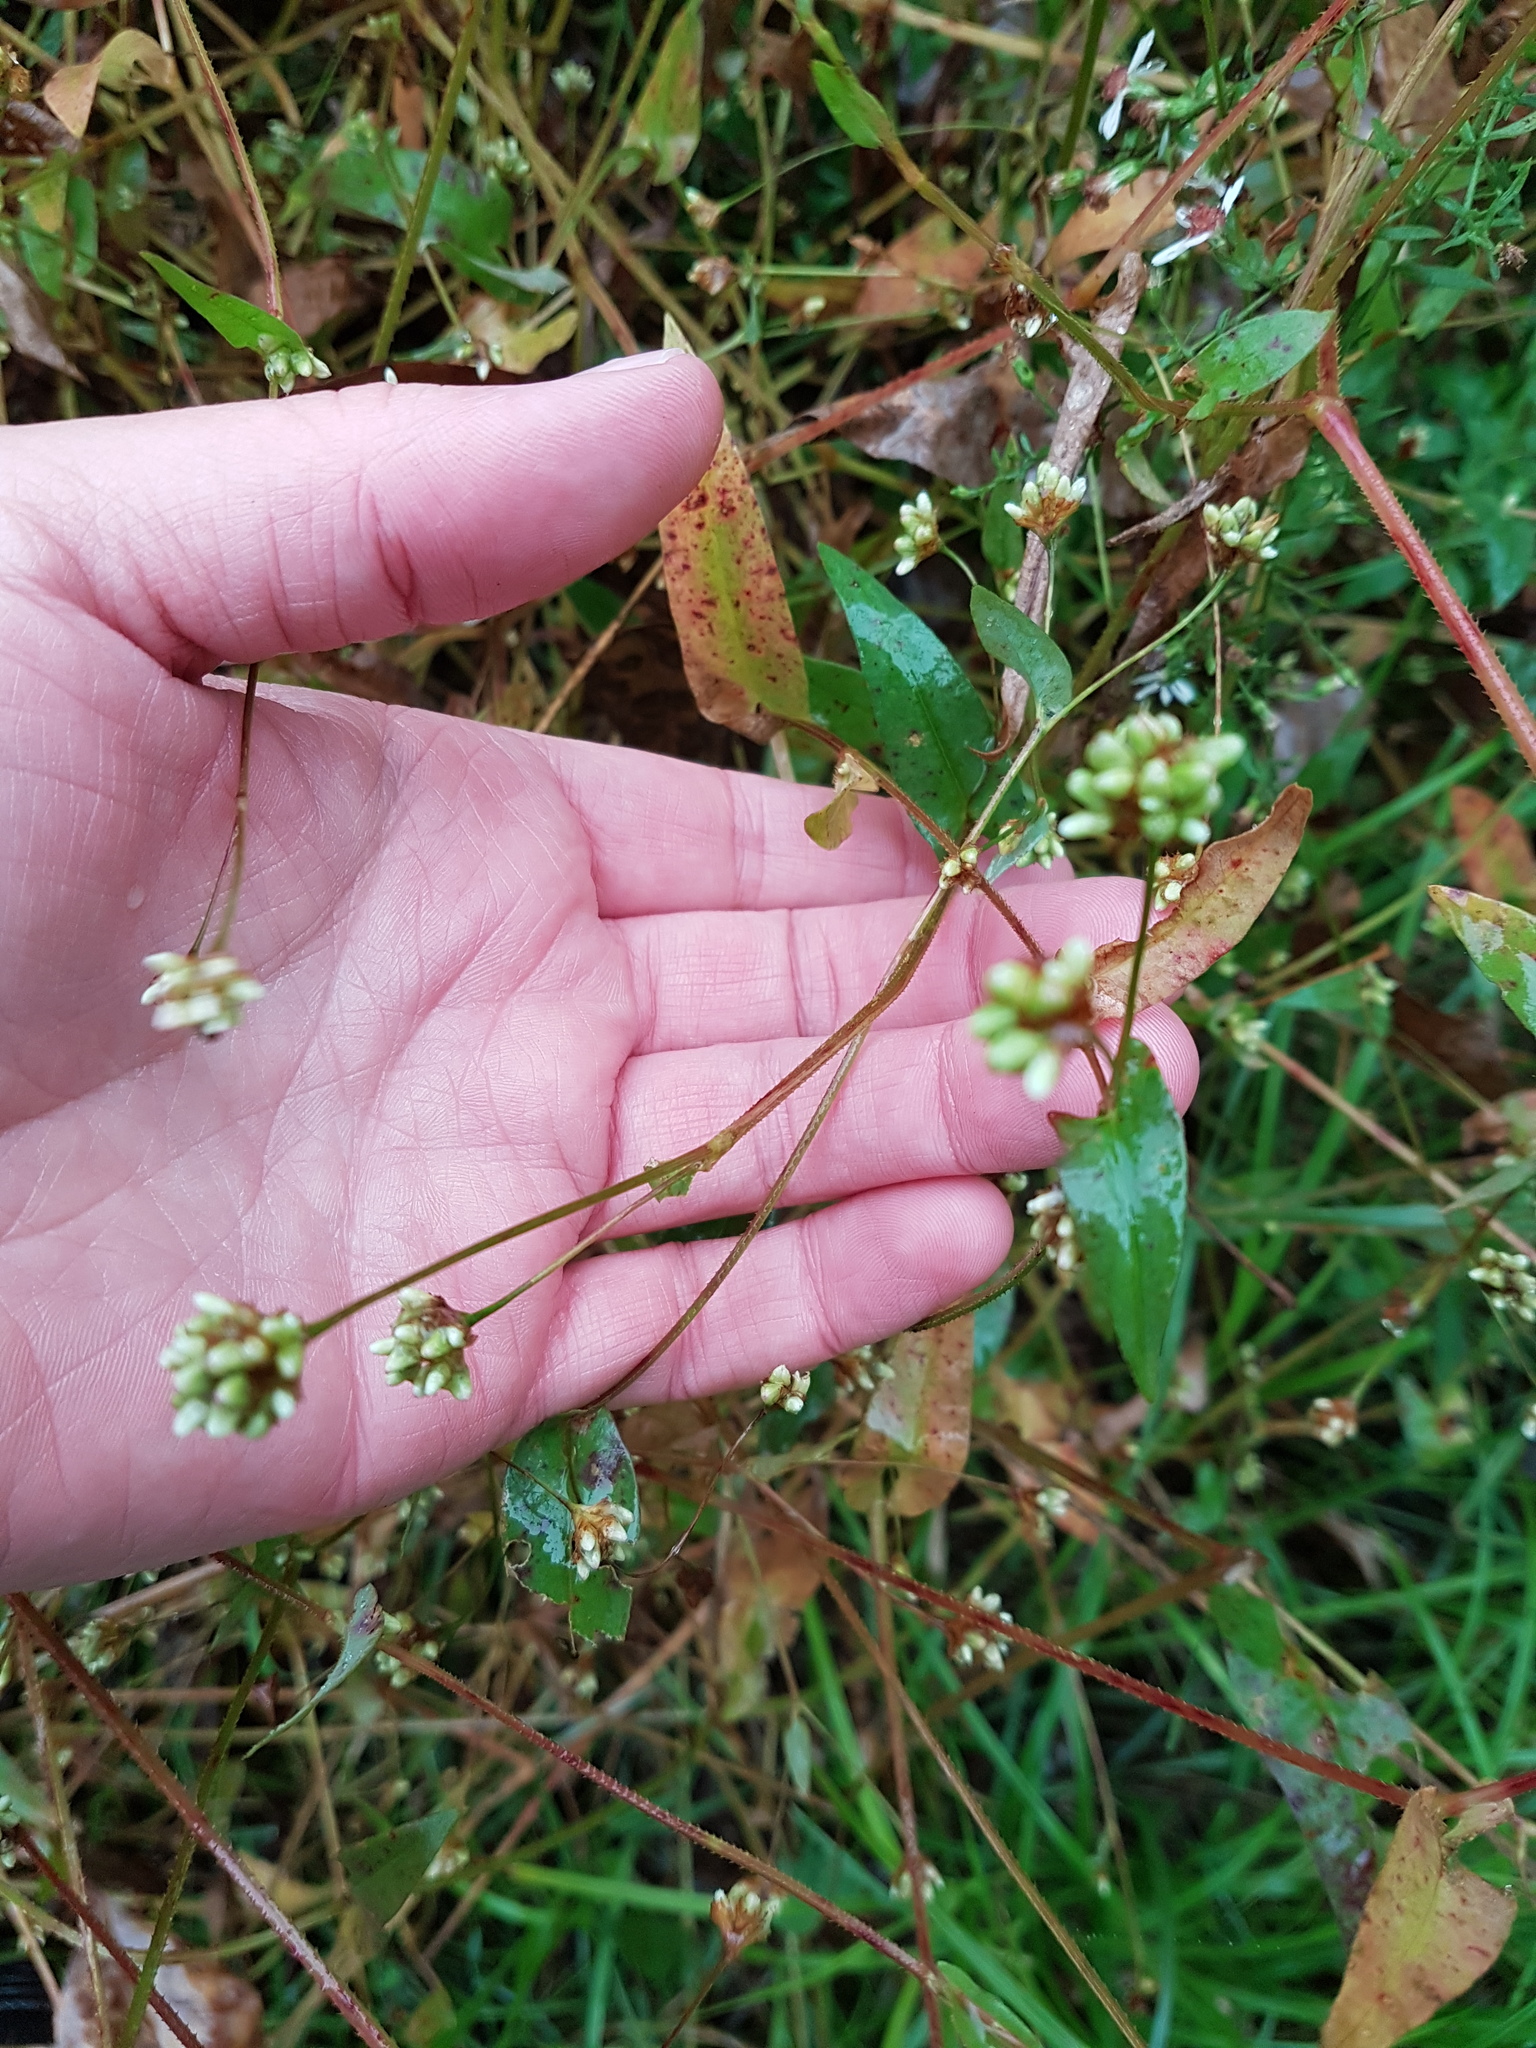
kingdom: Plantae
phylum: Tracheophyta
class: Magnoliopsida
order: Caryophyllales
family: Polygonaceae
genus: Persicaria
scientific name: Persicaria sagittata
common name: American tearthumb
